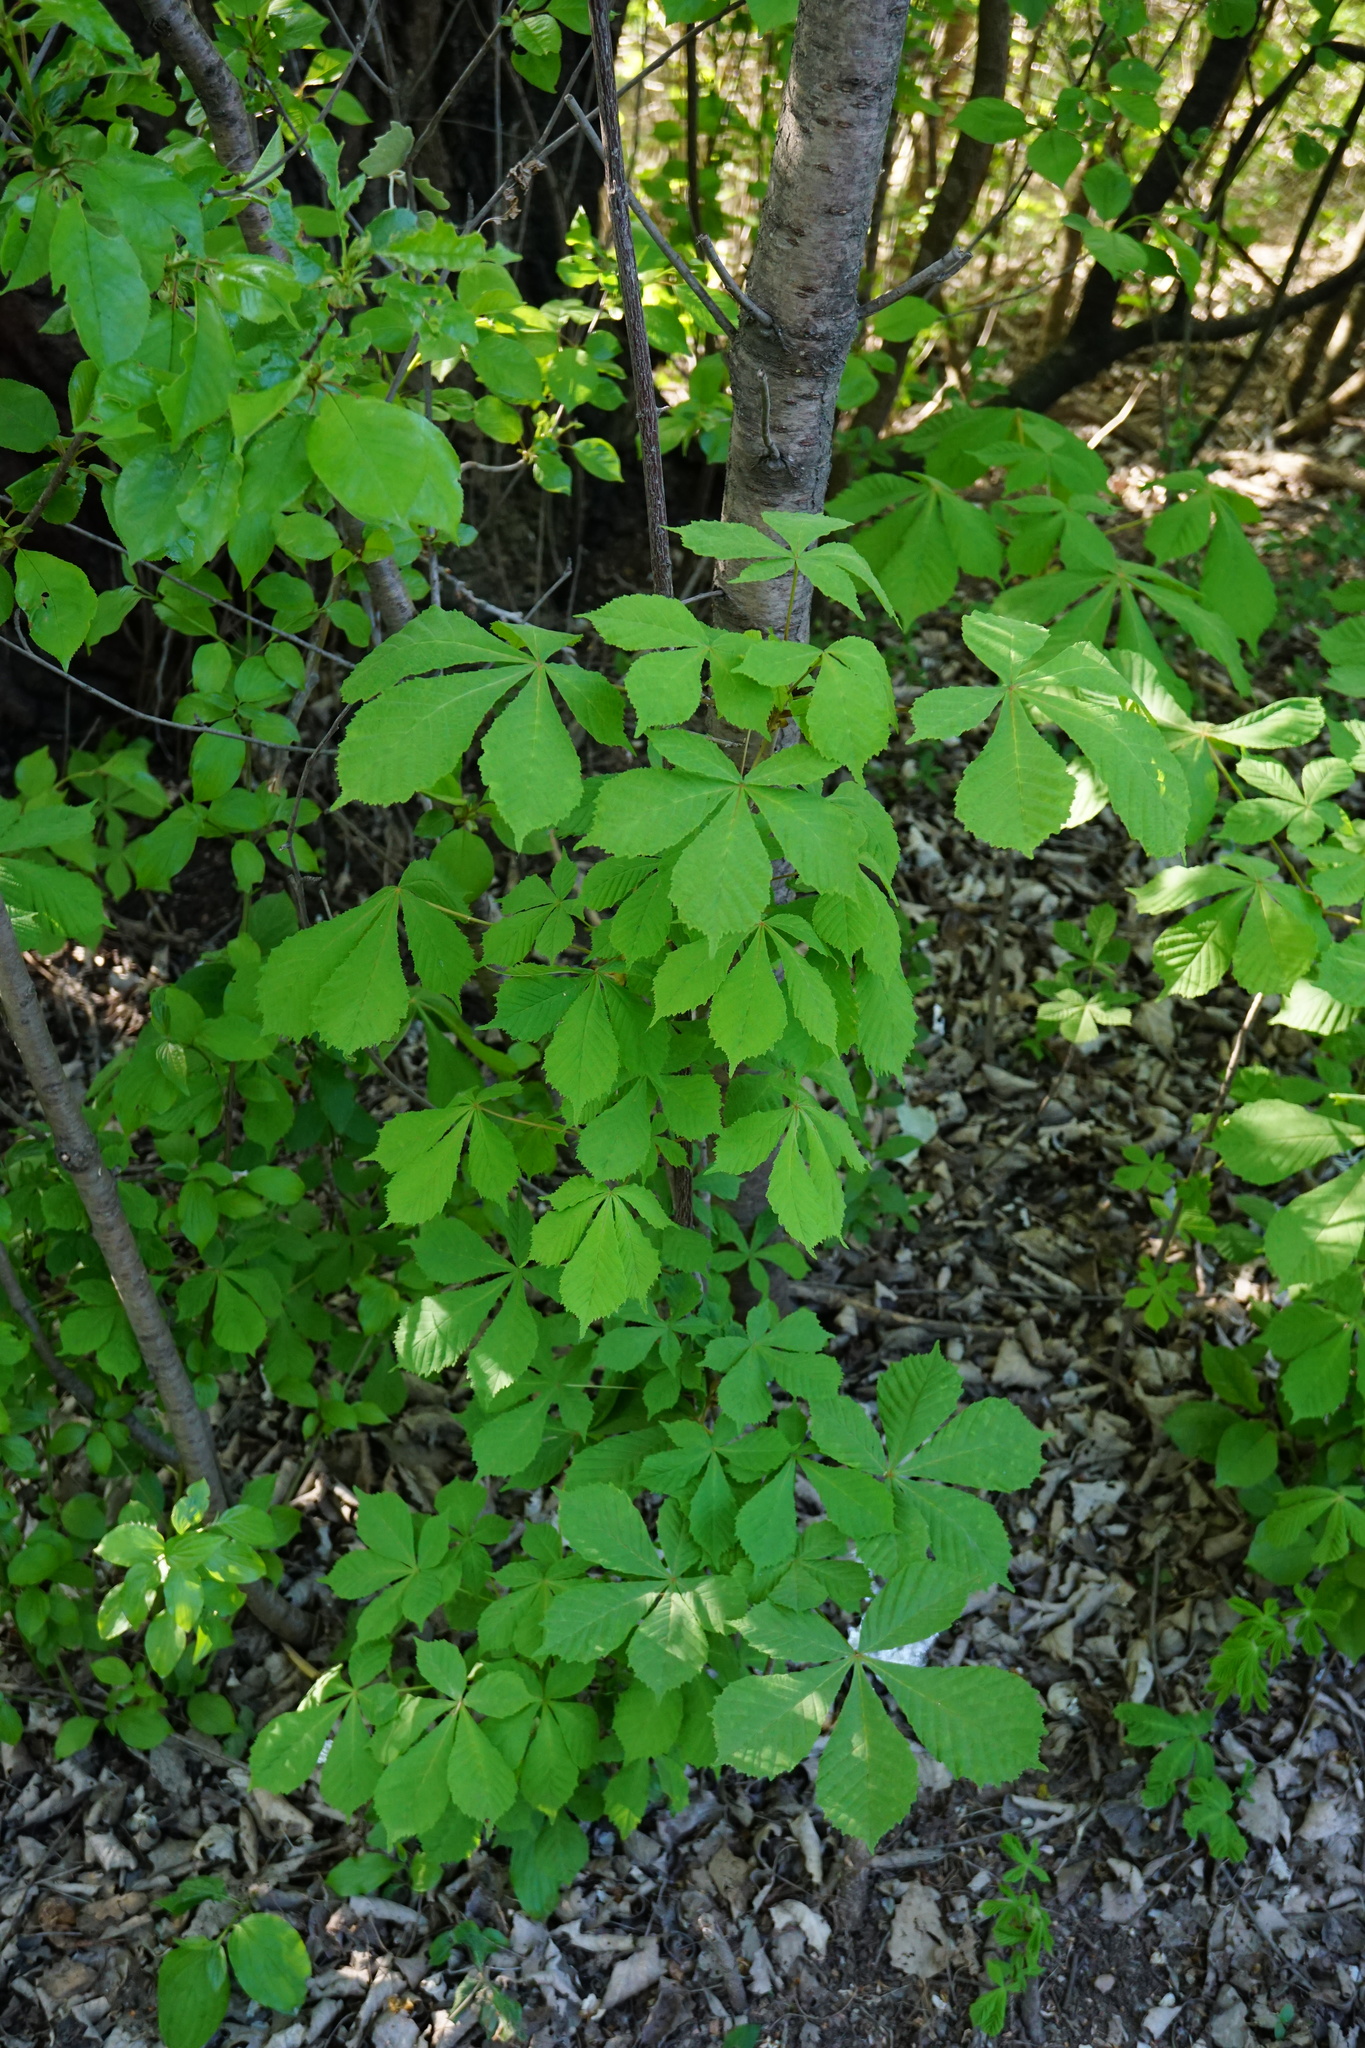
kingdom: Plantae
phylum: Tracheophyta
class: Magnoliopsida
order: Sapindales
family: Sapindaceae
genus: Aesculus
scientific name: Aesculus hippocastanum
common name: Horse-chestnut
